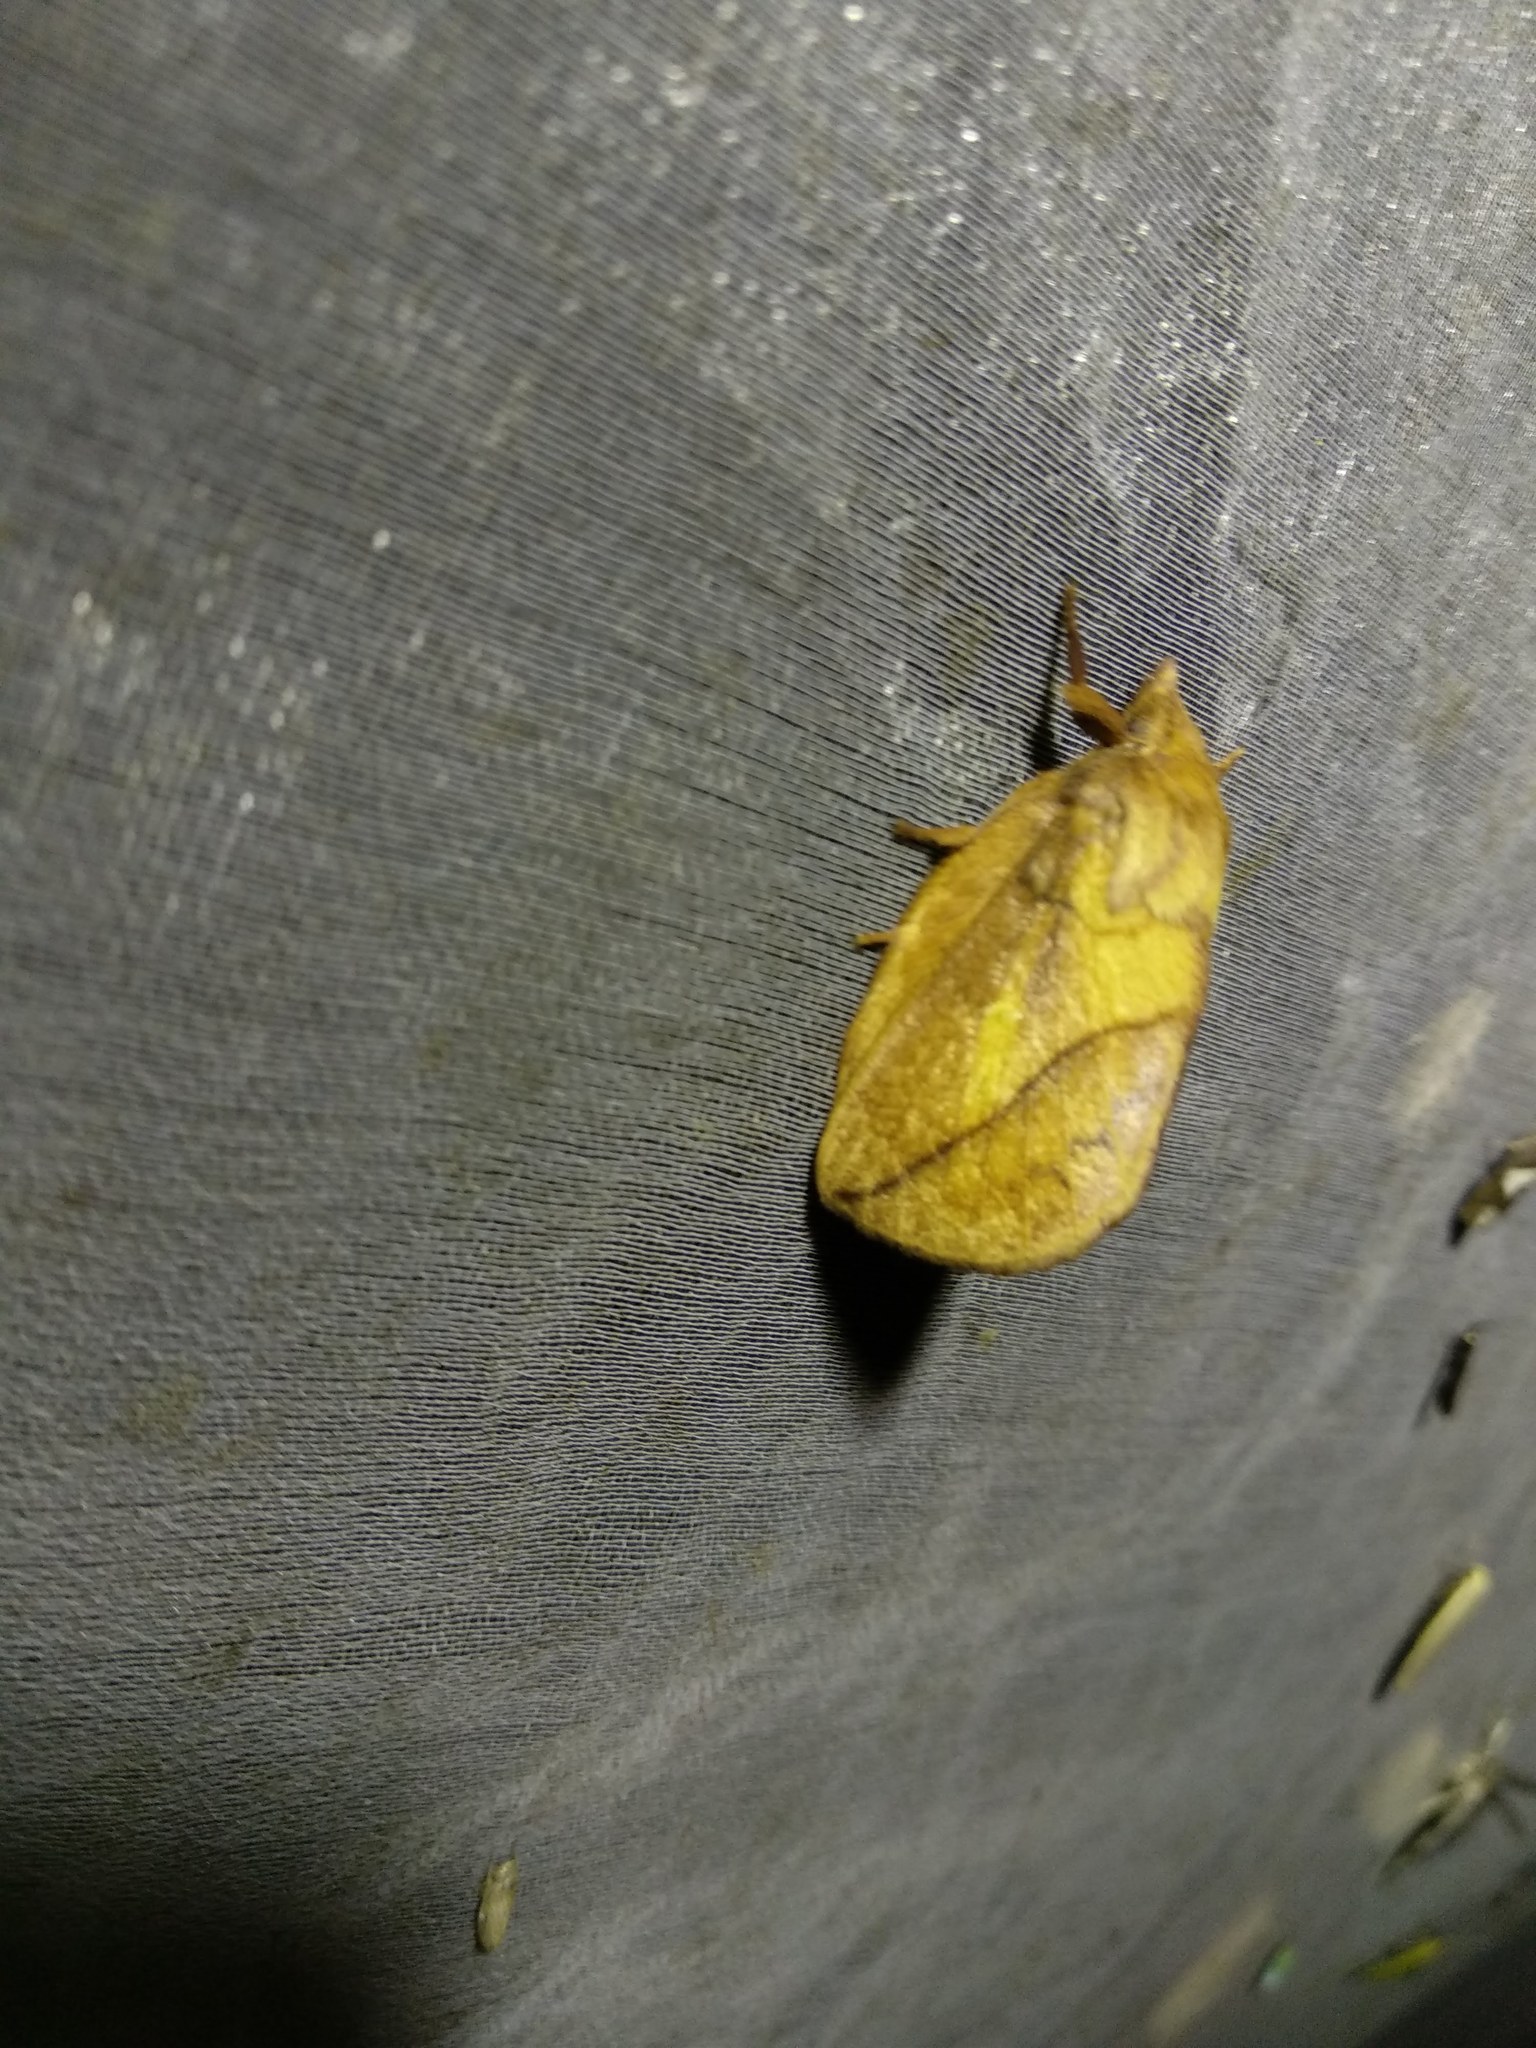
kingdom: Animalia
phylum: Arthropoda
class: Insecta
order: Lepidoptera
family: Lasiocampidae
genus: Euthrix
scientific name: Euthrix potatoria
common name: Drinker
